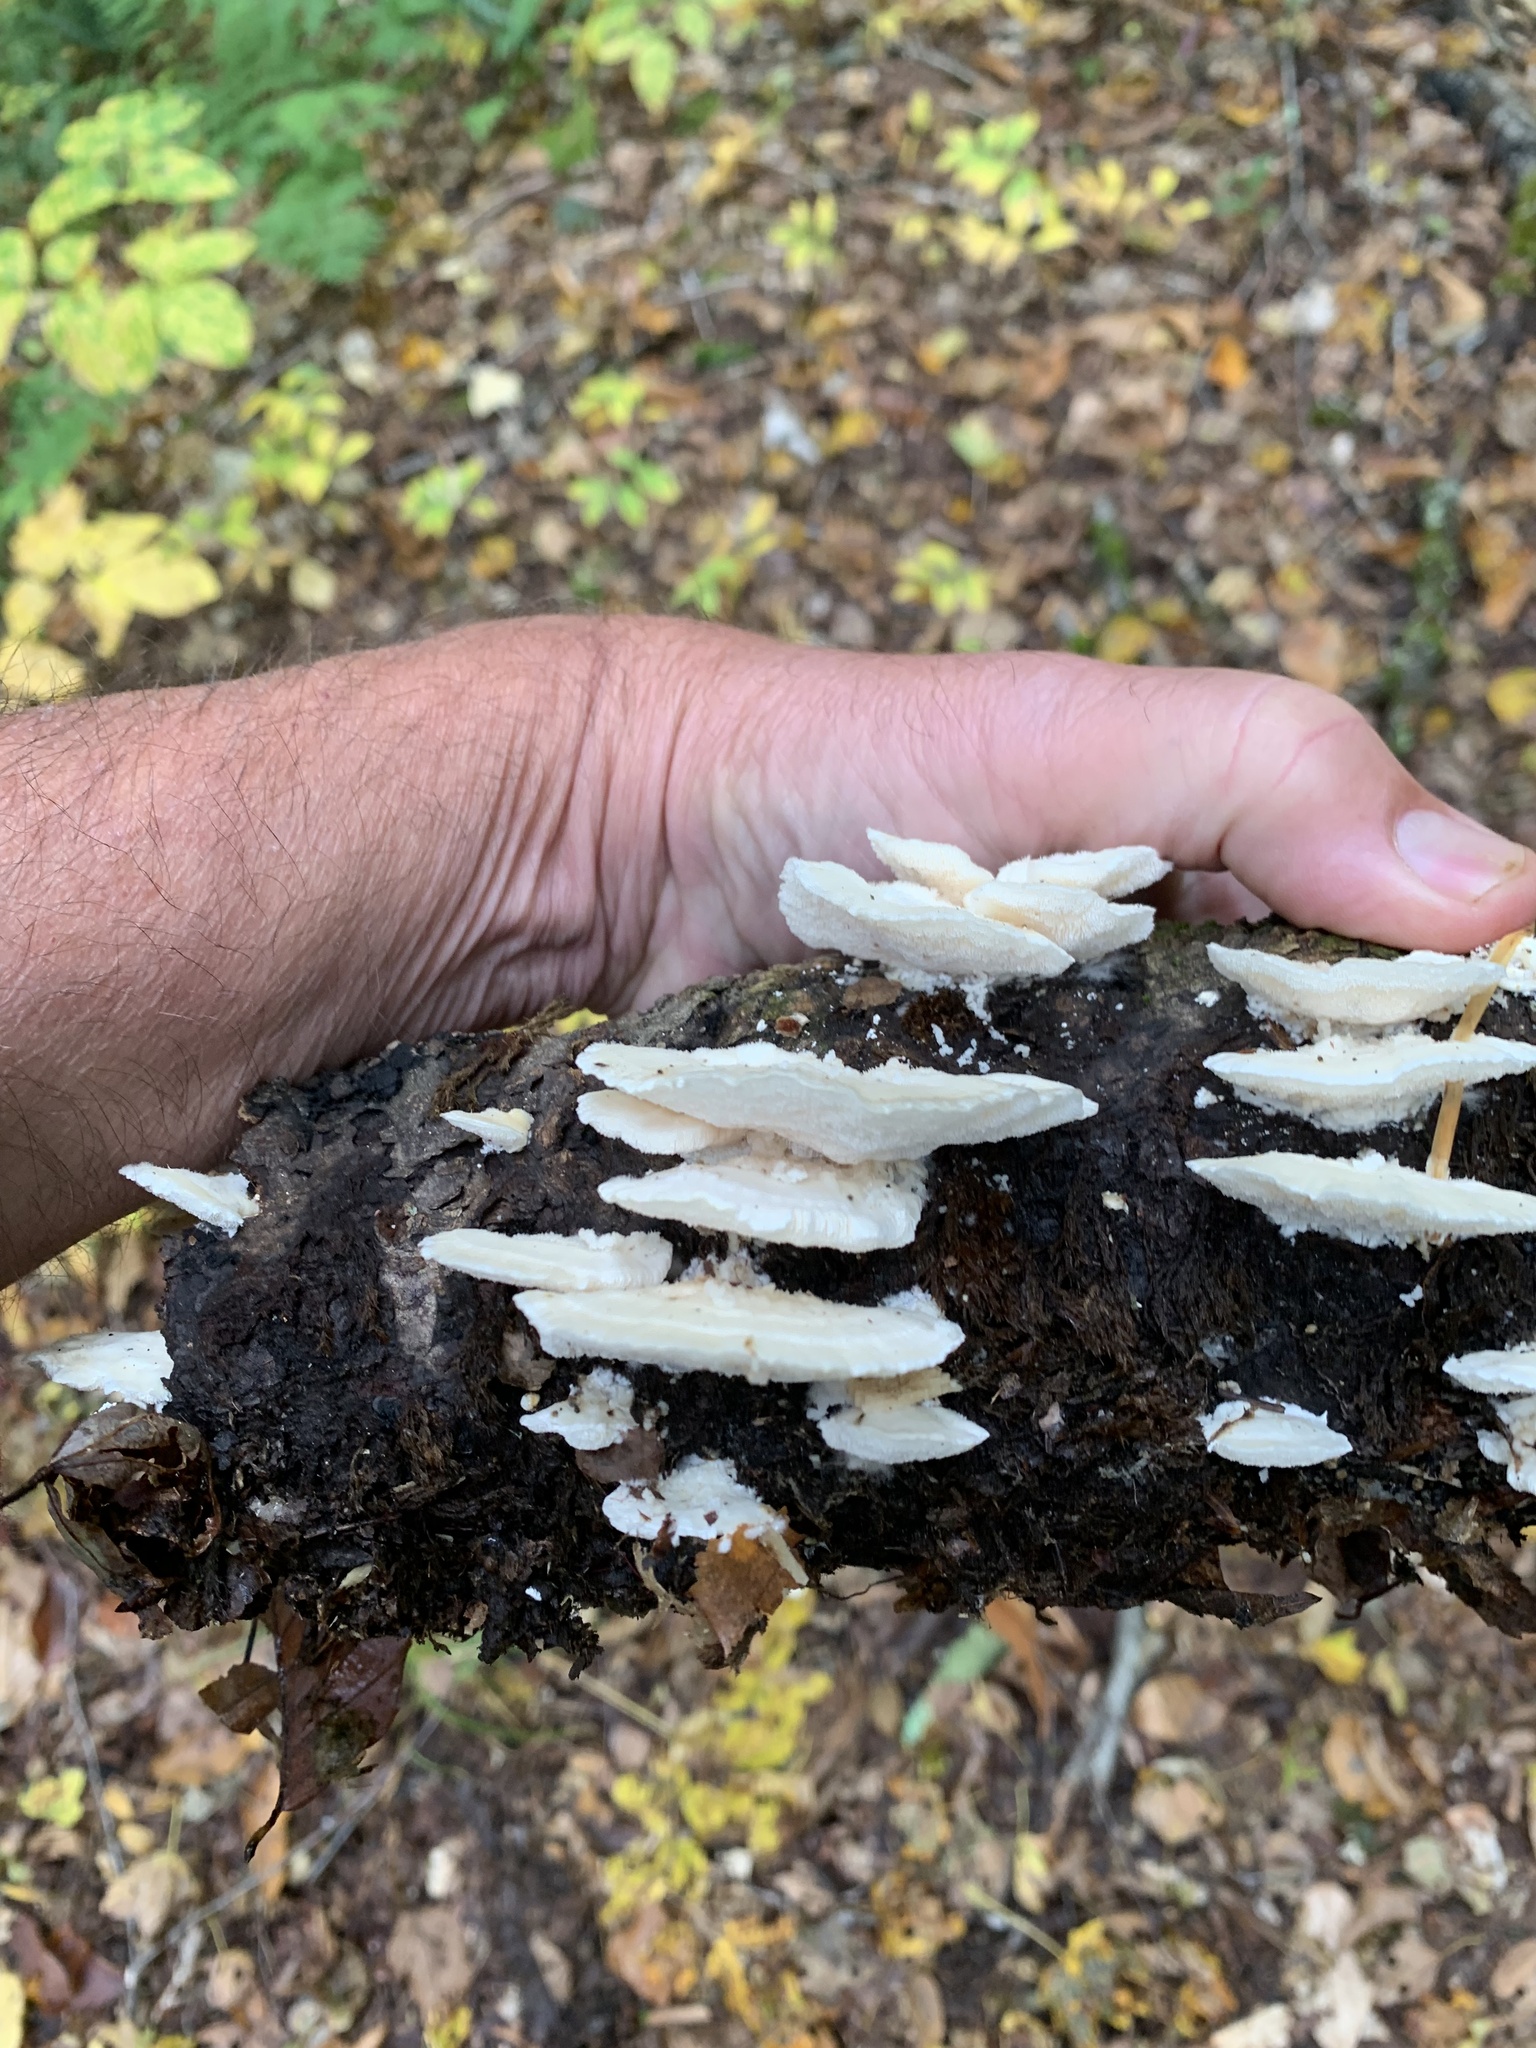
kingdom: Fungi
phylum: Basidiomycota
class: Agaricomycetes
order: Polyporales
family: Polyporaceae
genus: Trametes
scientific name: Trametes pubescens
